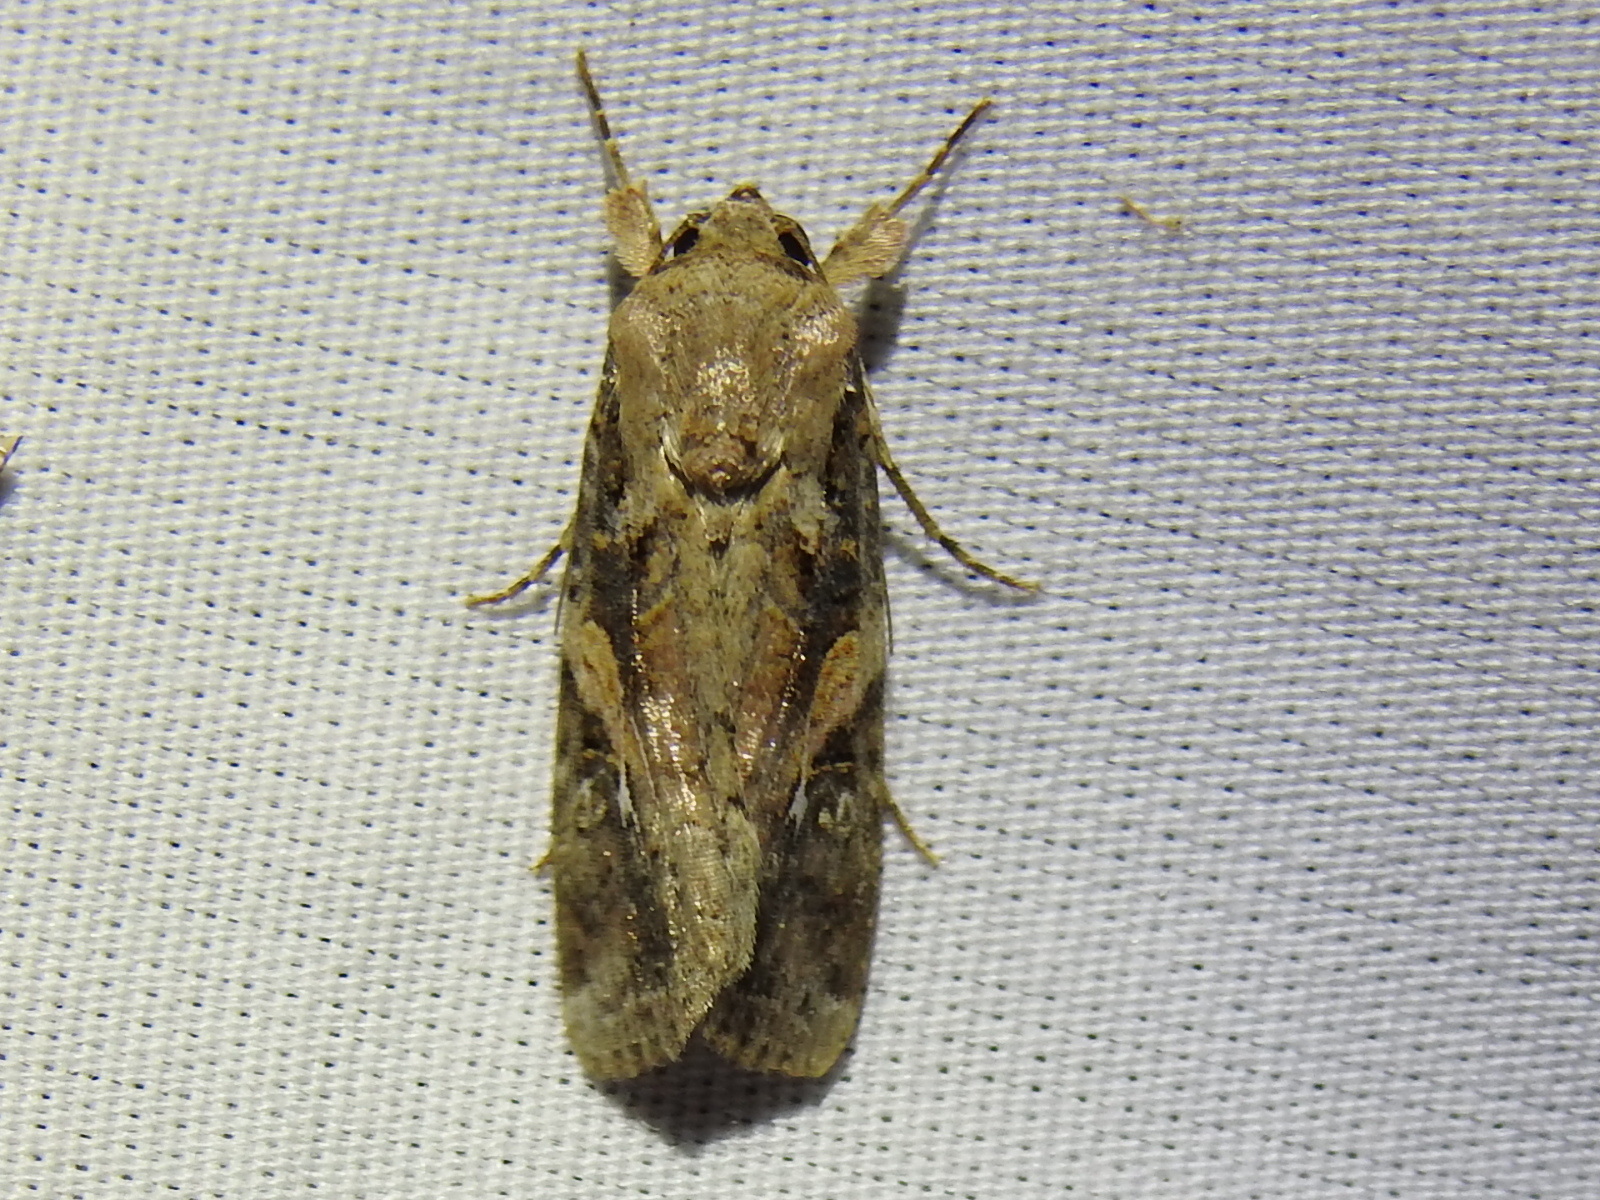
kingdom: Animalia
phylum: Arthropoda
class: Insecta
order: Lepidoptera
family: Noctuidae
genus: Spodoptera
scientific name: Spodoptera frugiperda
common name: Fall armyworm
